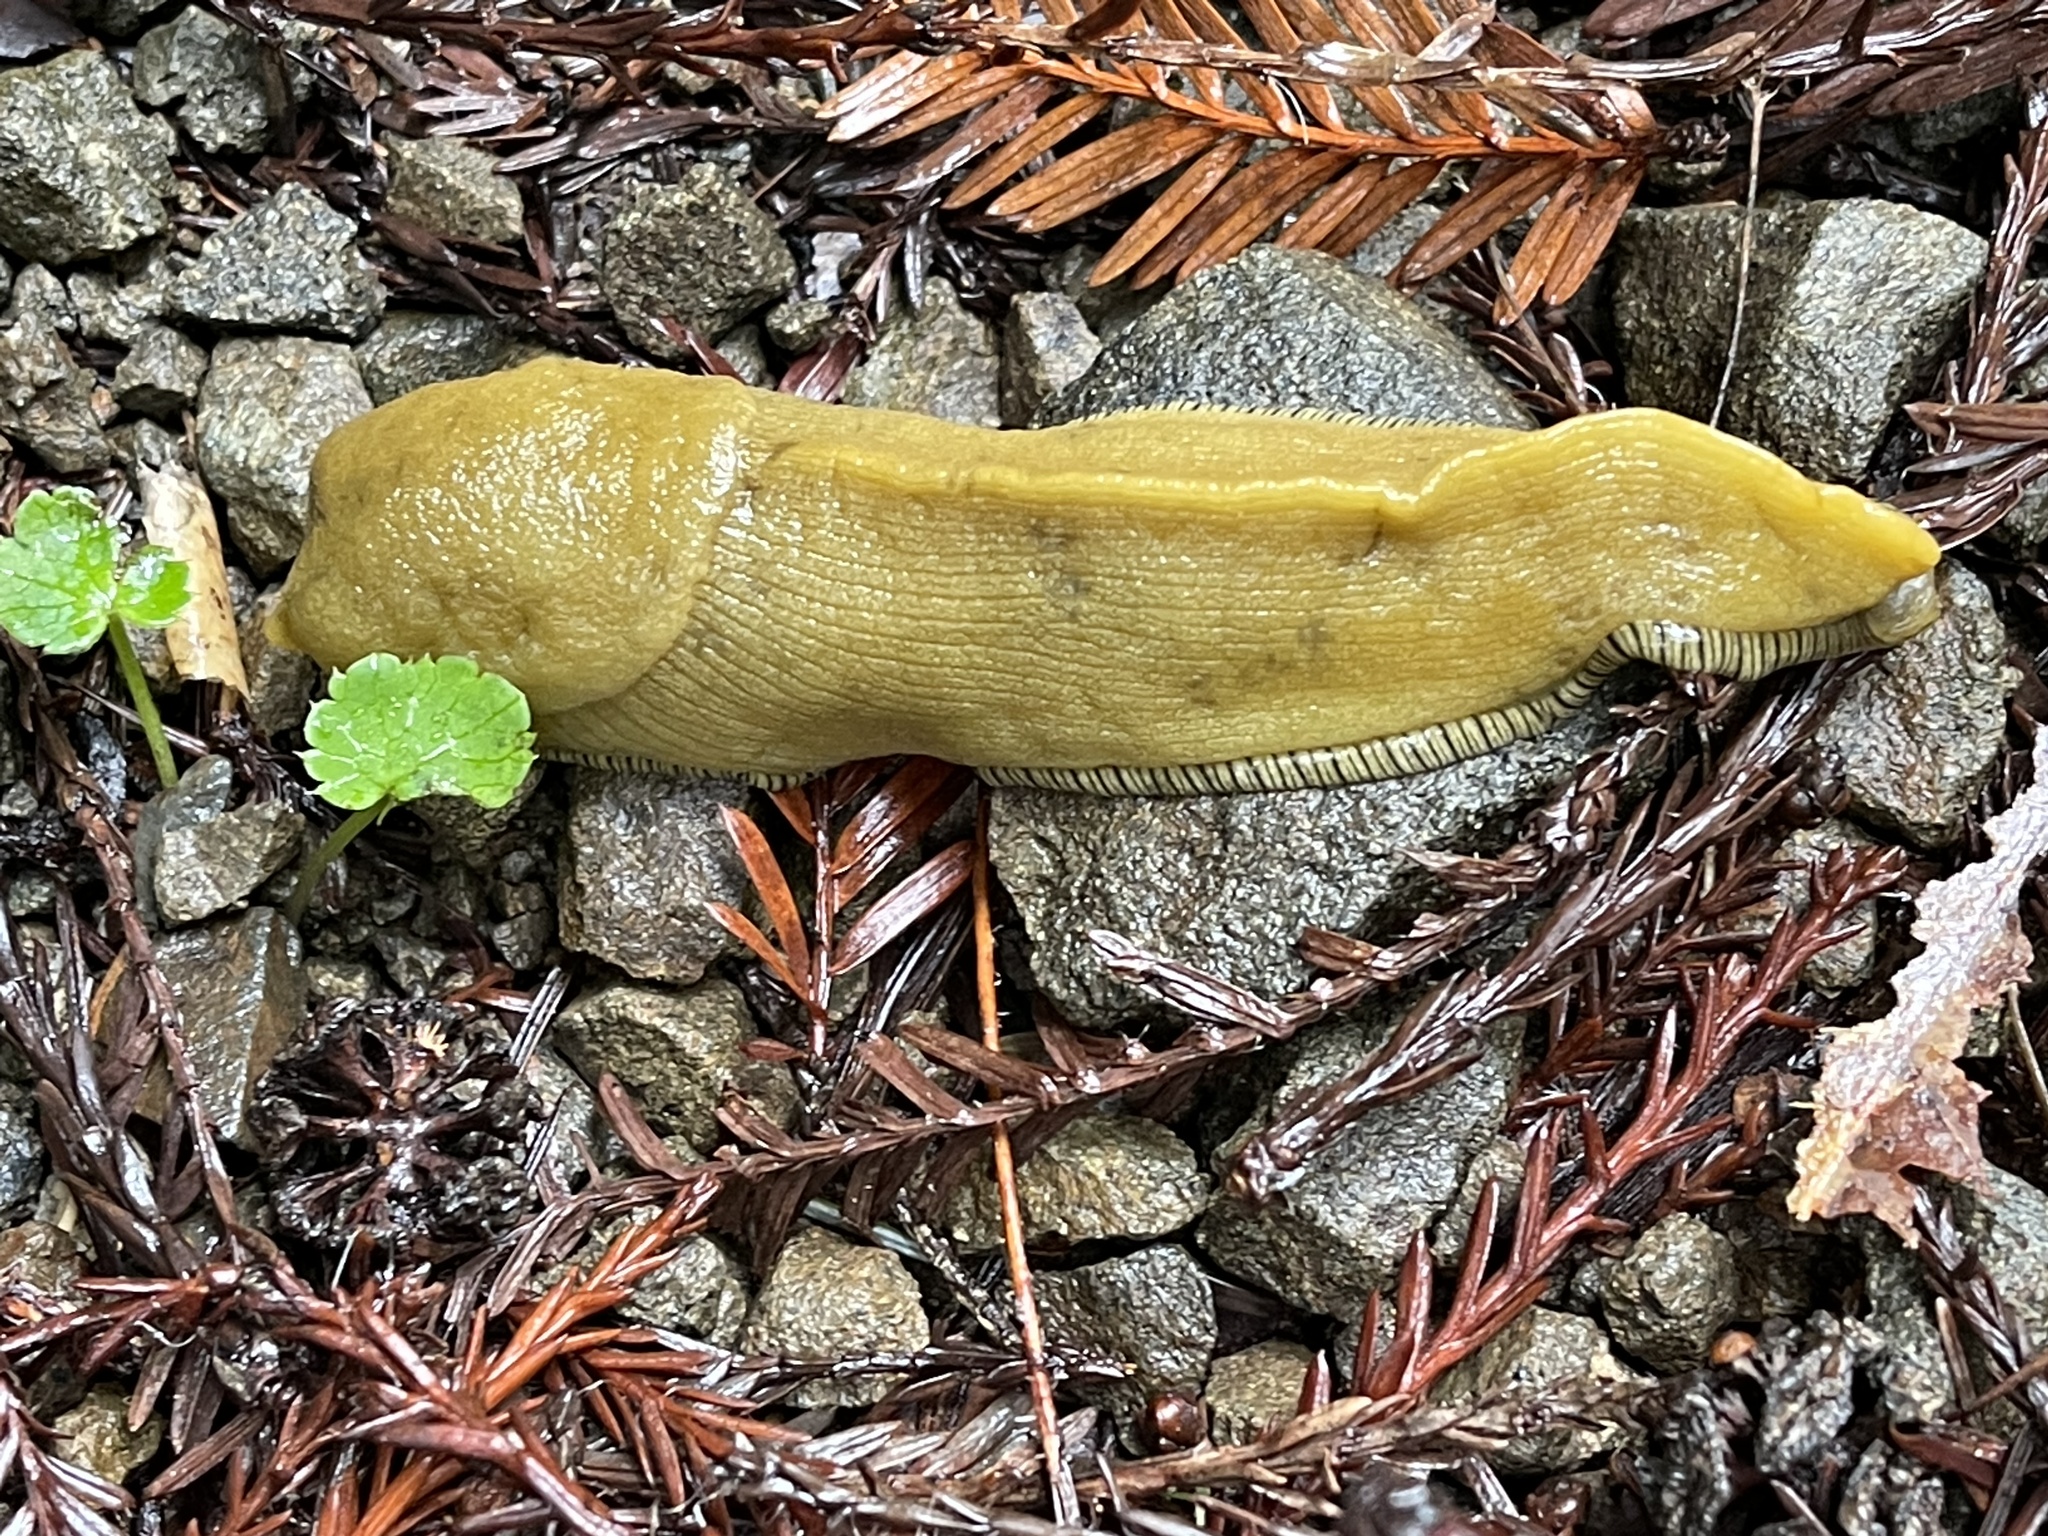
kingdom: Animalia
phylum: Mollusca
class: Gastropoda
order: Stylommatophora
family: Ariolimacidae
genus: Ariolimax
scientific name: Ariolimax buttoni
